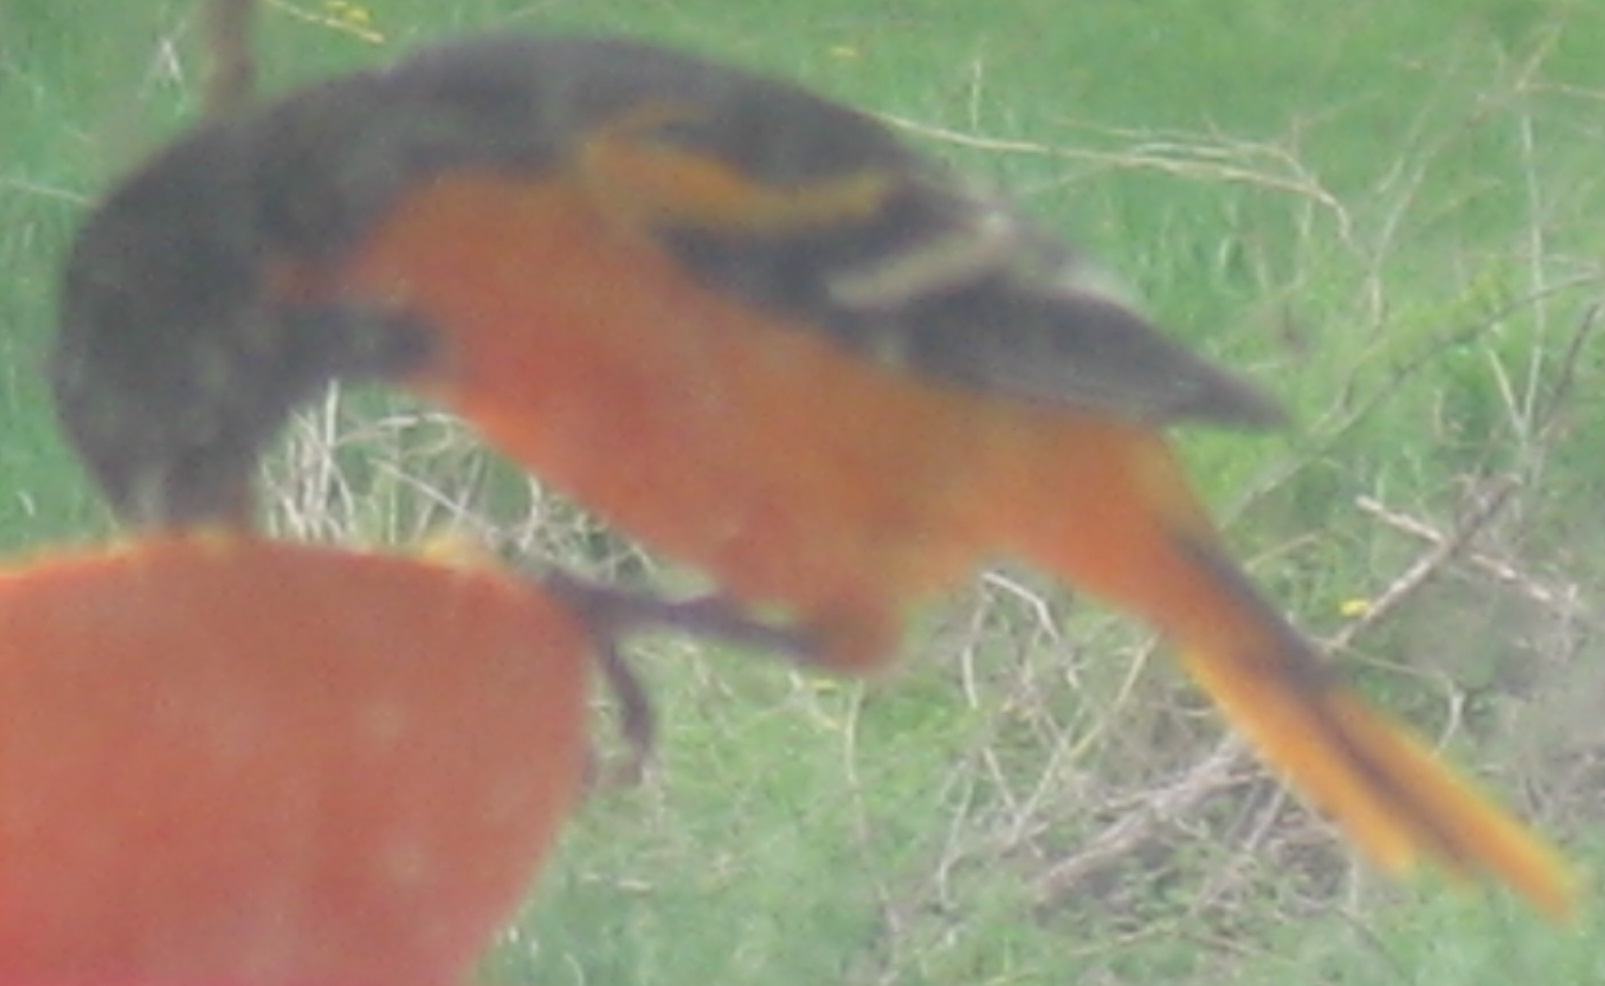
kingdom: Animalia
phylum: Chordata
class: Aves
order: Passeriformes
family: Icteridae
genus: Icterus
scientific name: Icterus galbula
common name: Baltimore oriole
